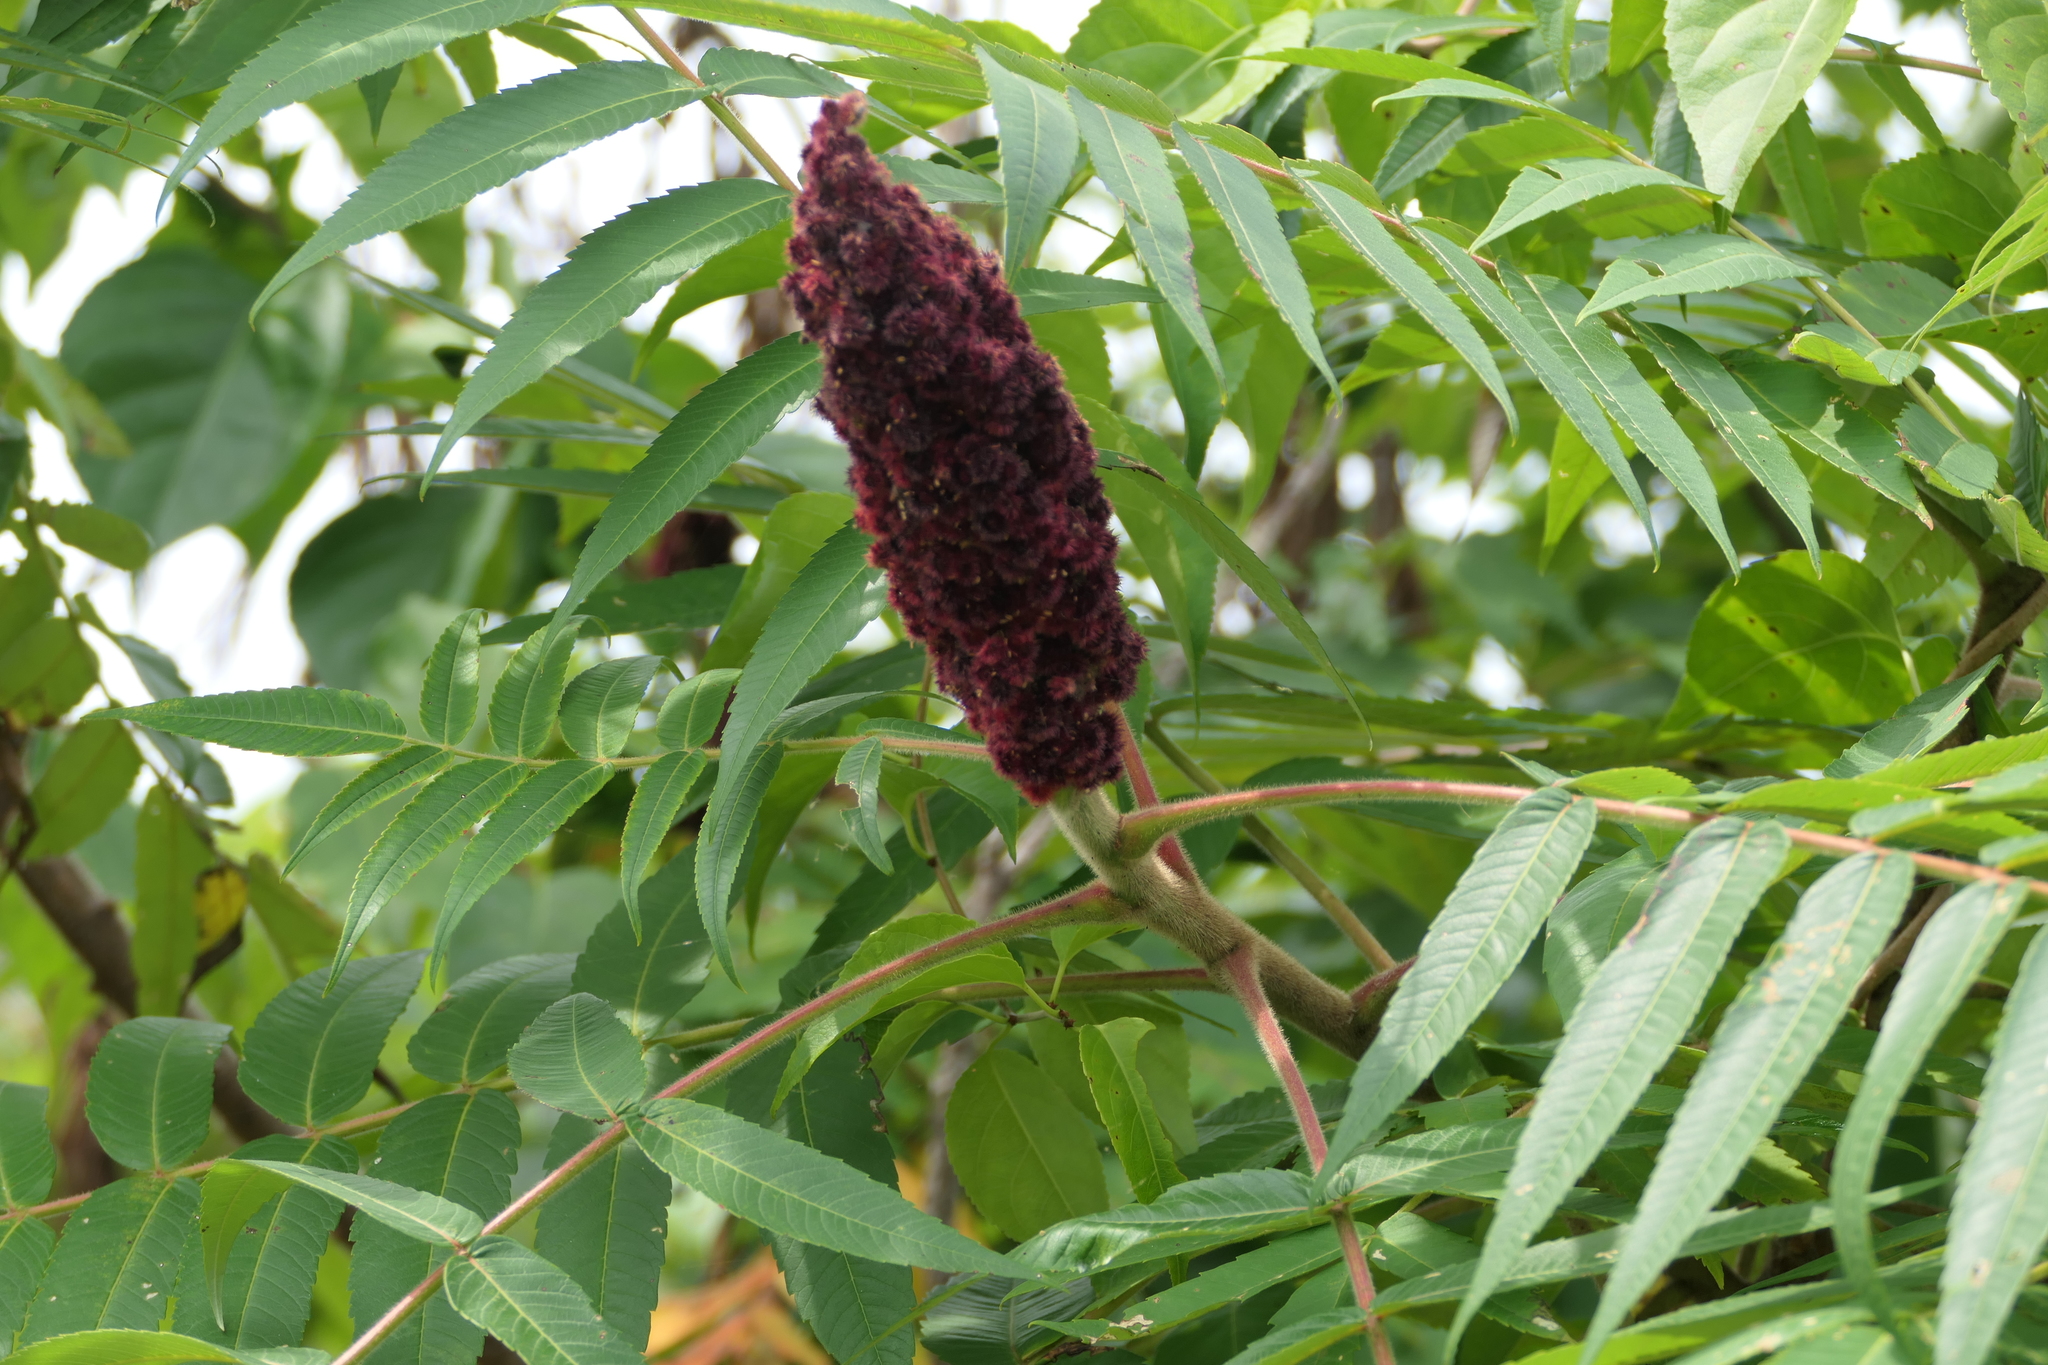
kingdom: Plantae
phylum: Tracheophyta
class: Magnoliopsida
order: Sapindales
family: Anacardiaceae
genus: Rhus
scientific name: Rhus typhina
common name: Staghorn sumac
